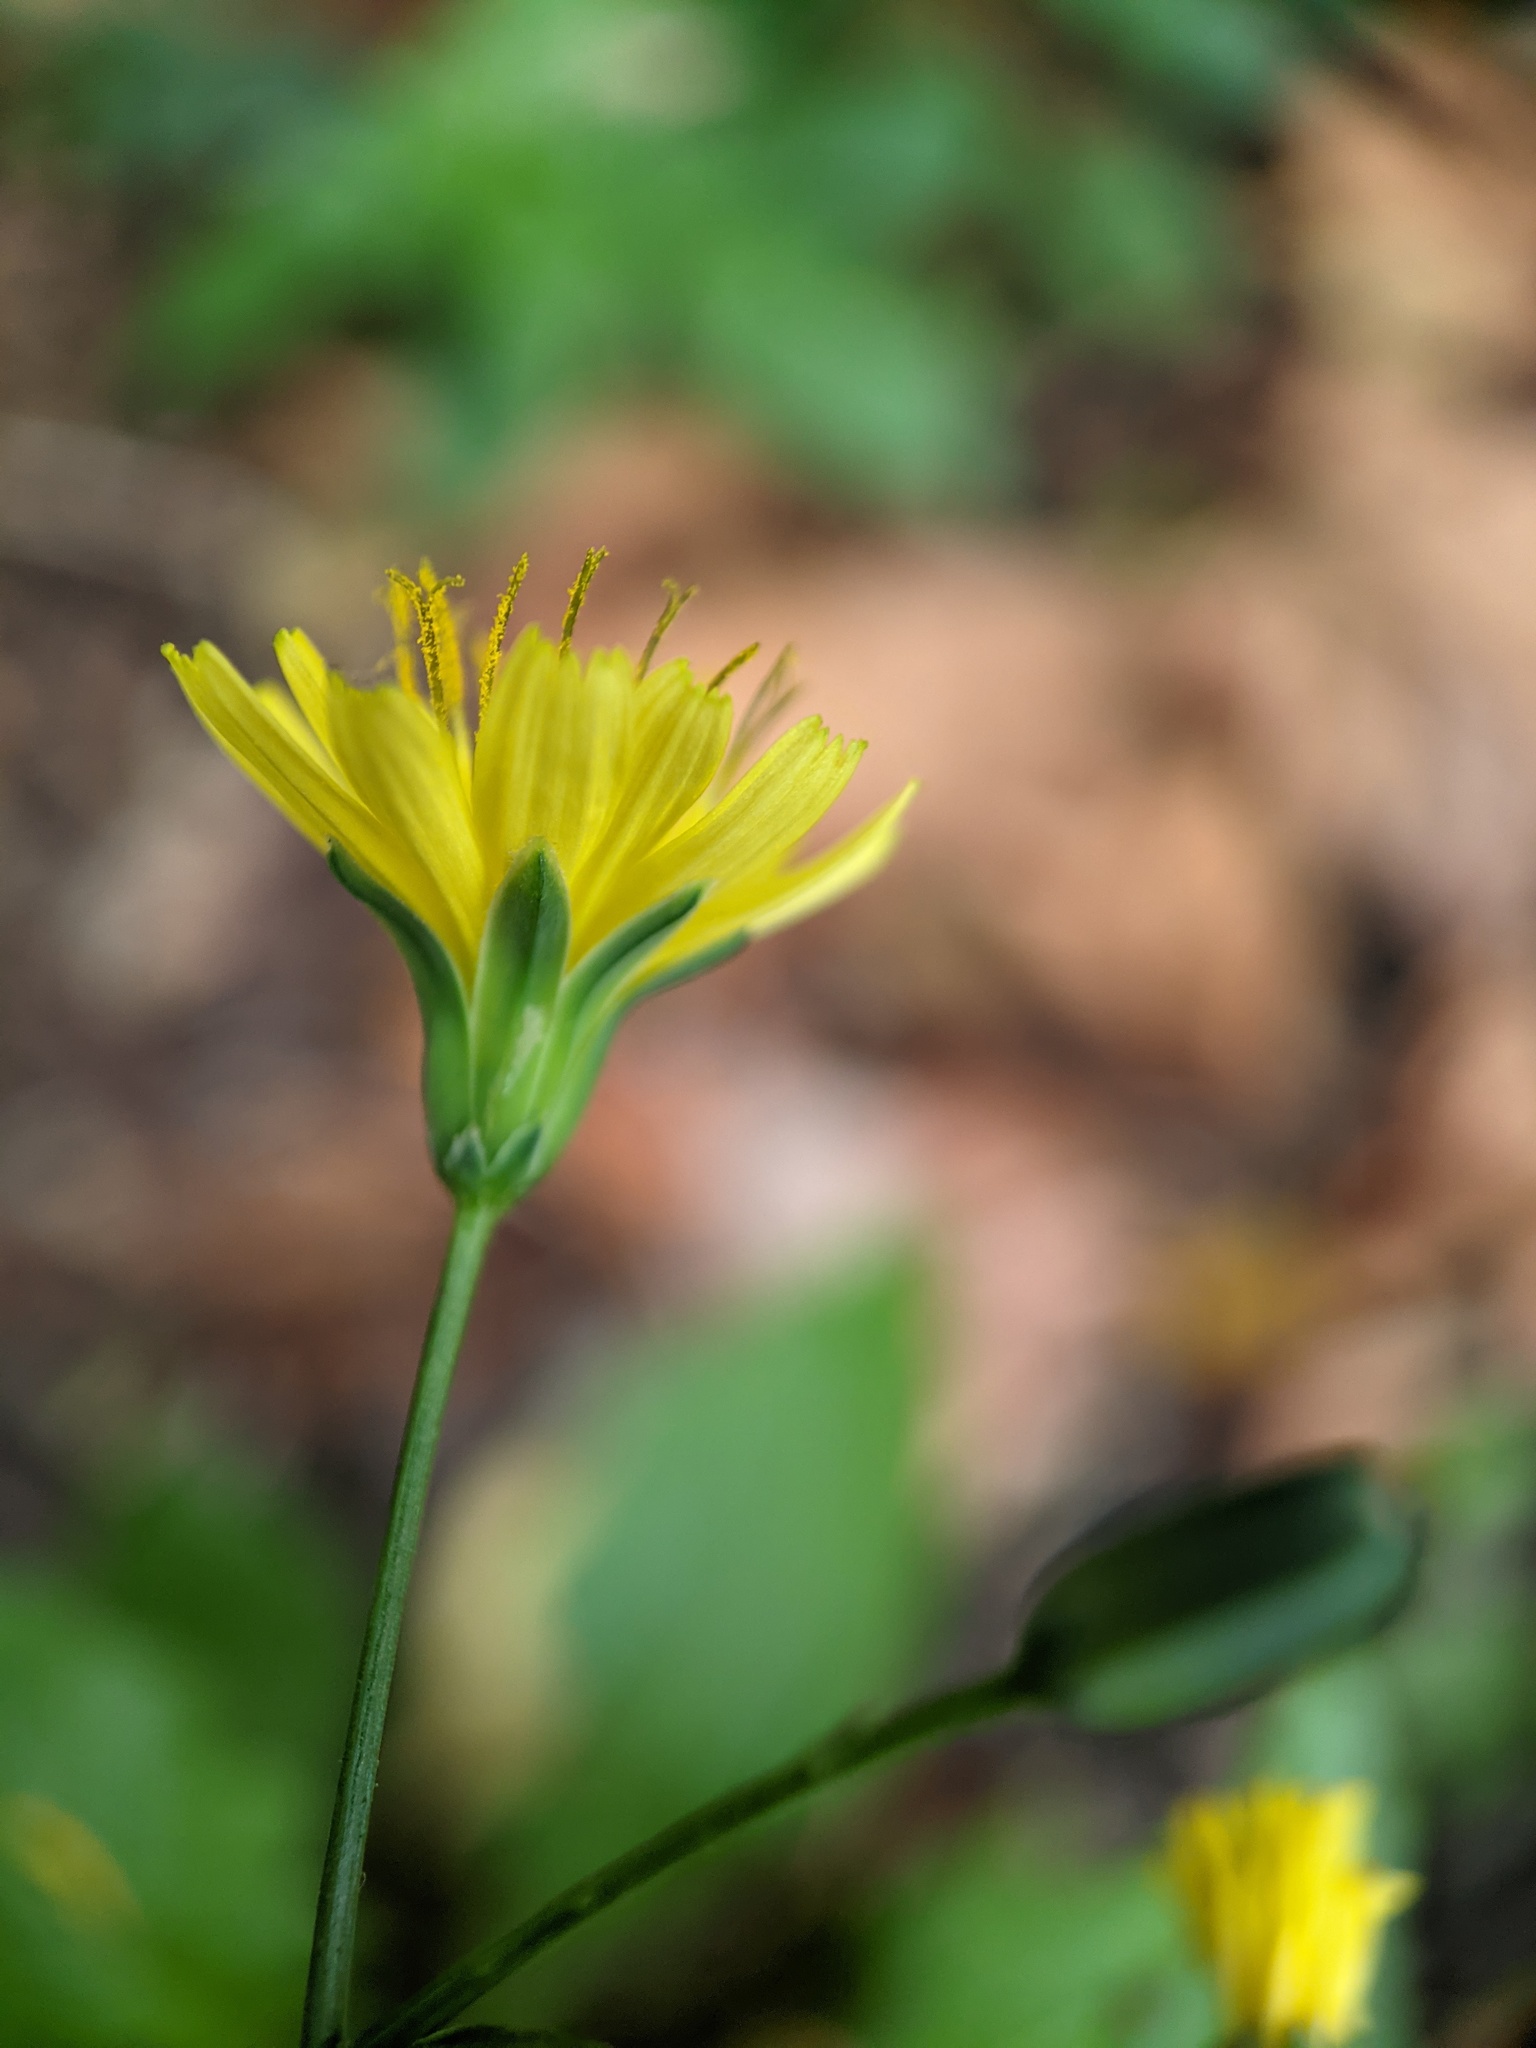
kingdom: Plantae
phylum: Tracheophyta
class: Magnoliopsida
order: Asterales
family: Asteraceae
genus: Lapsana
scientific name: Lapsana communis
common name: Nipplewort
